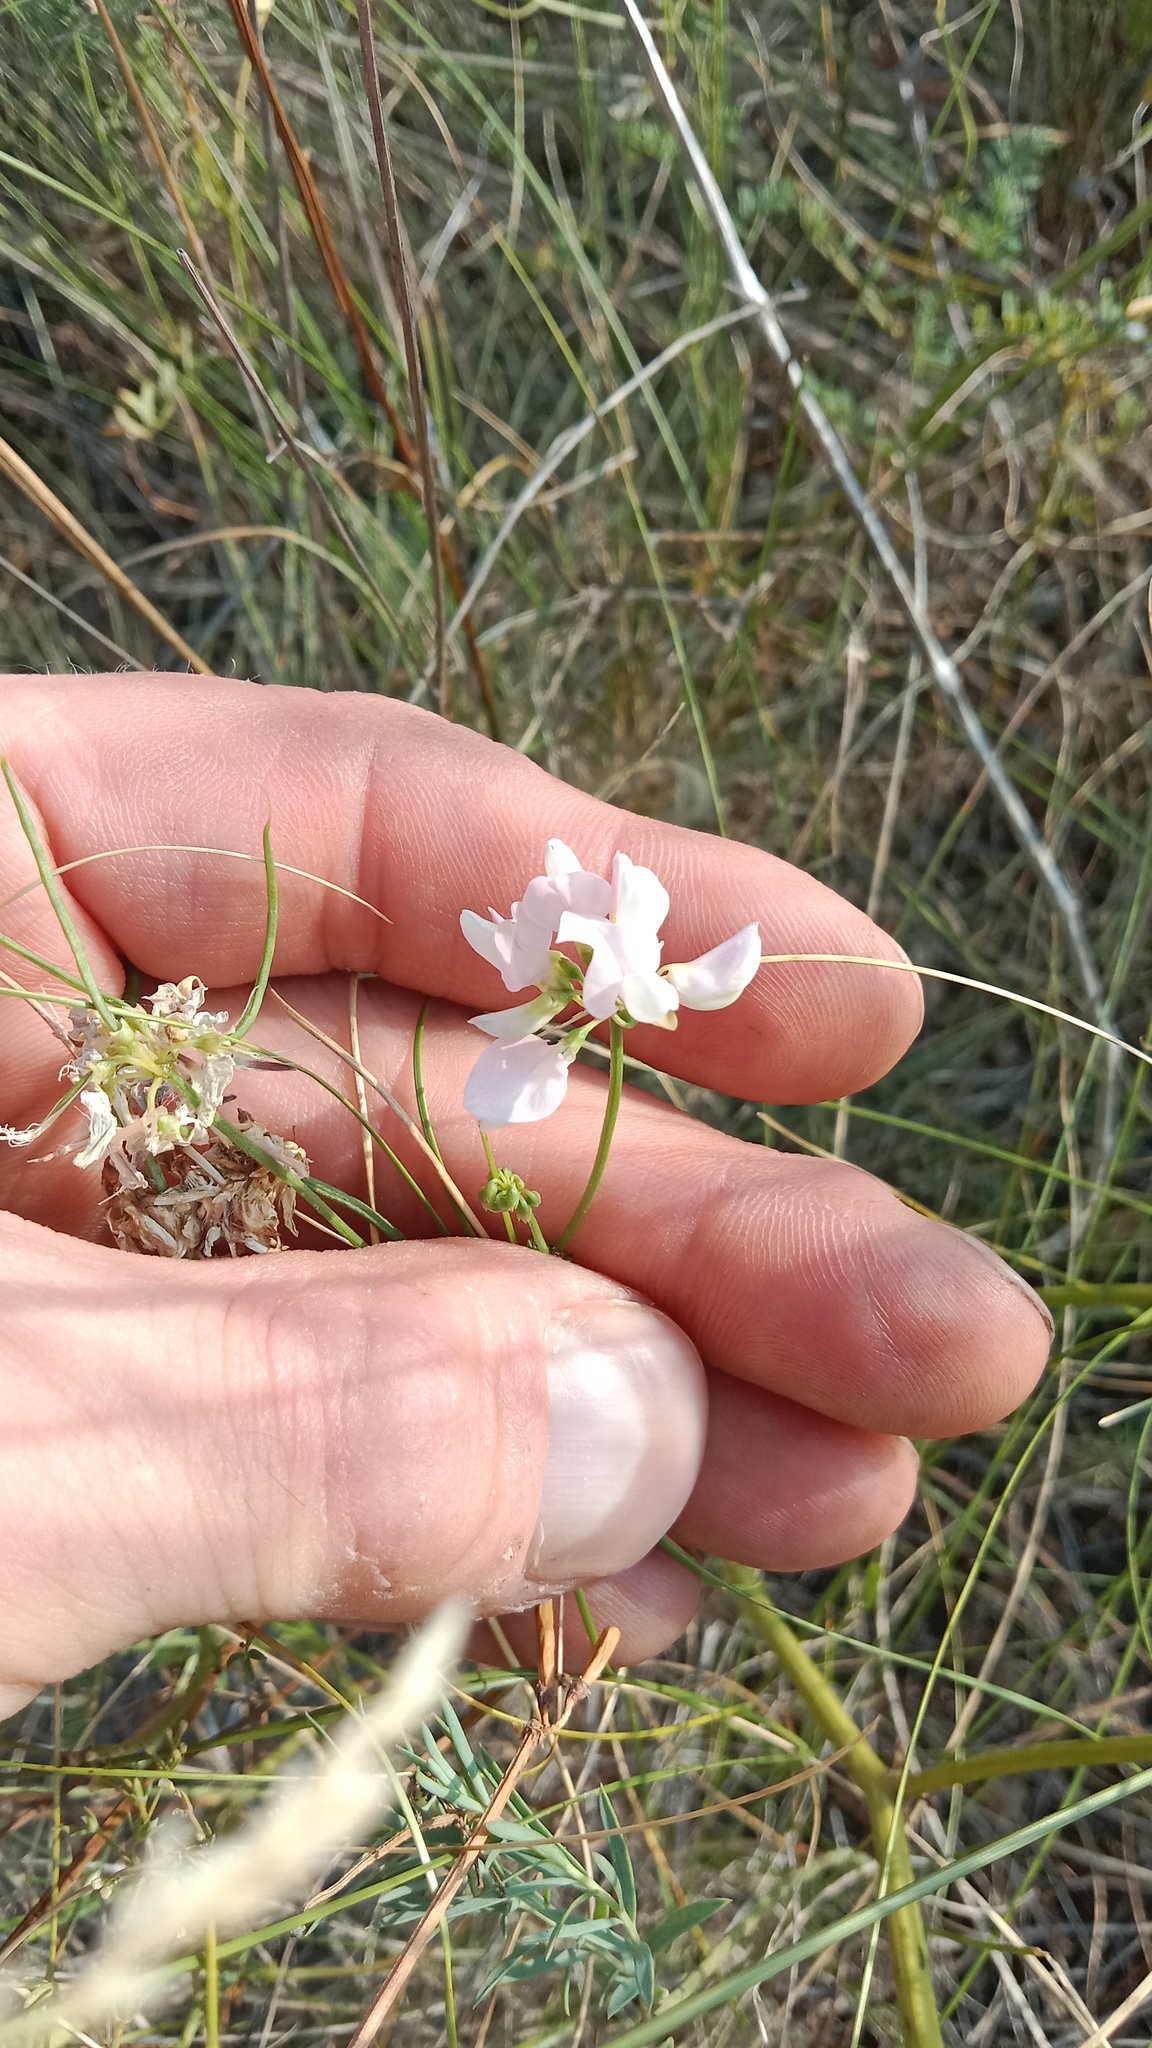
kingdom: Plantae
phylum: Tracheophyta
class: Magnoliopsida
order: Fabales
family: Fabaceae
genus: Coronilla
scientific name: Coronilla varia
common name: Crownvetch
